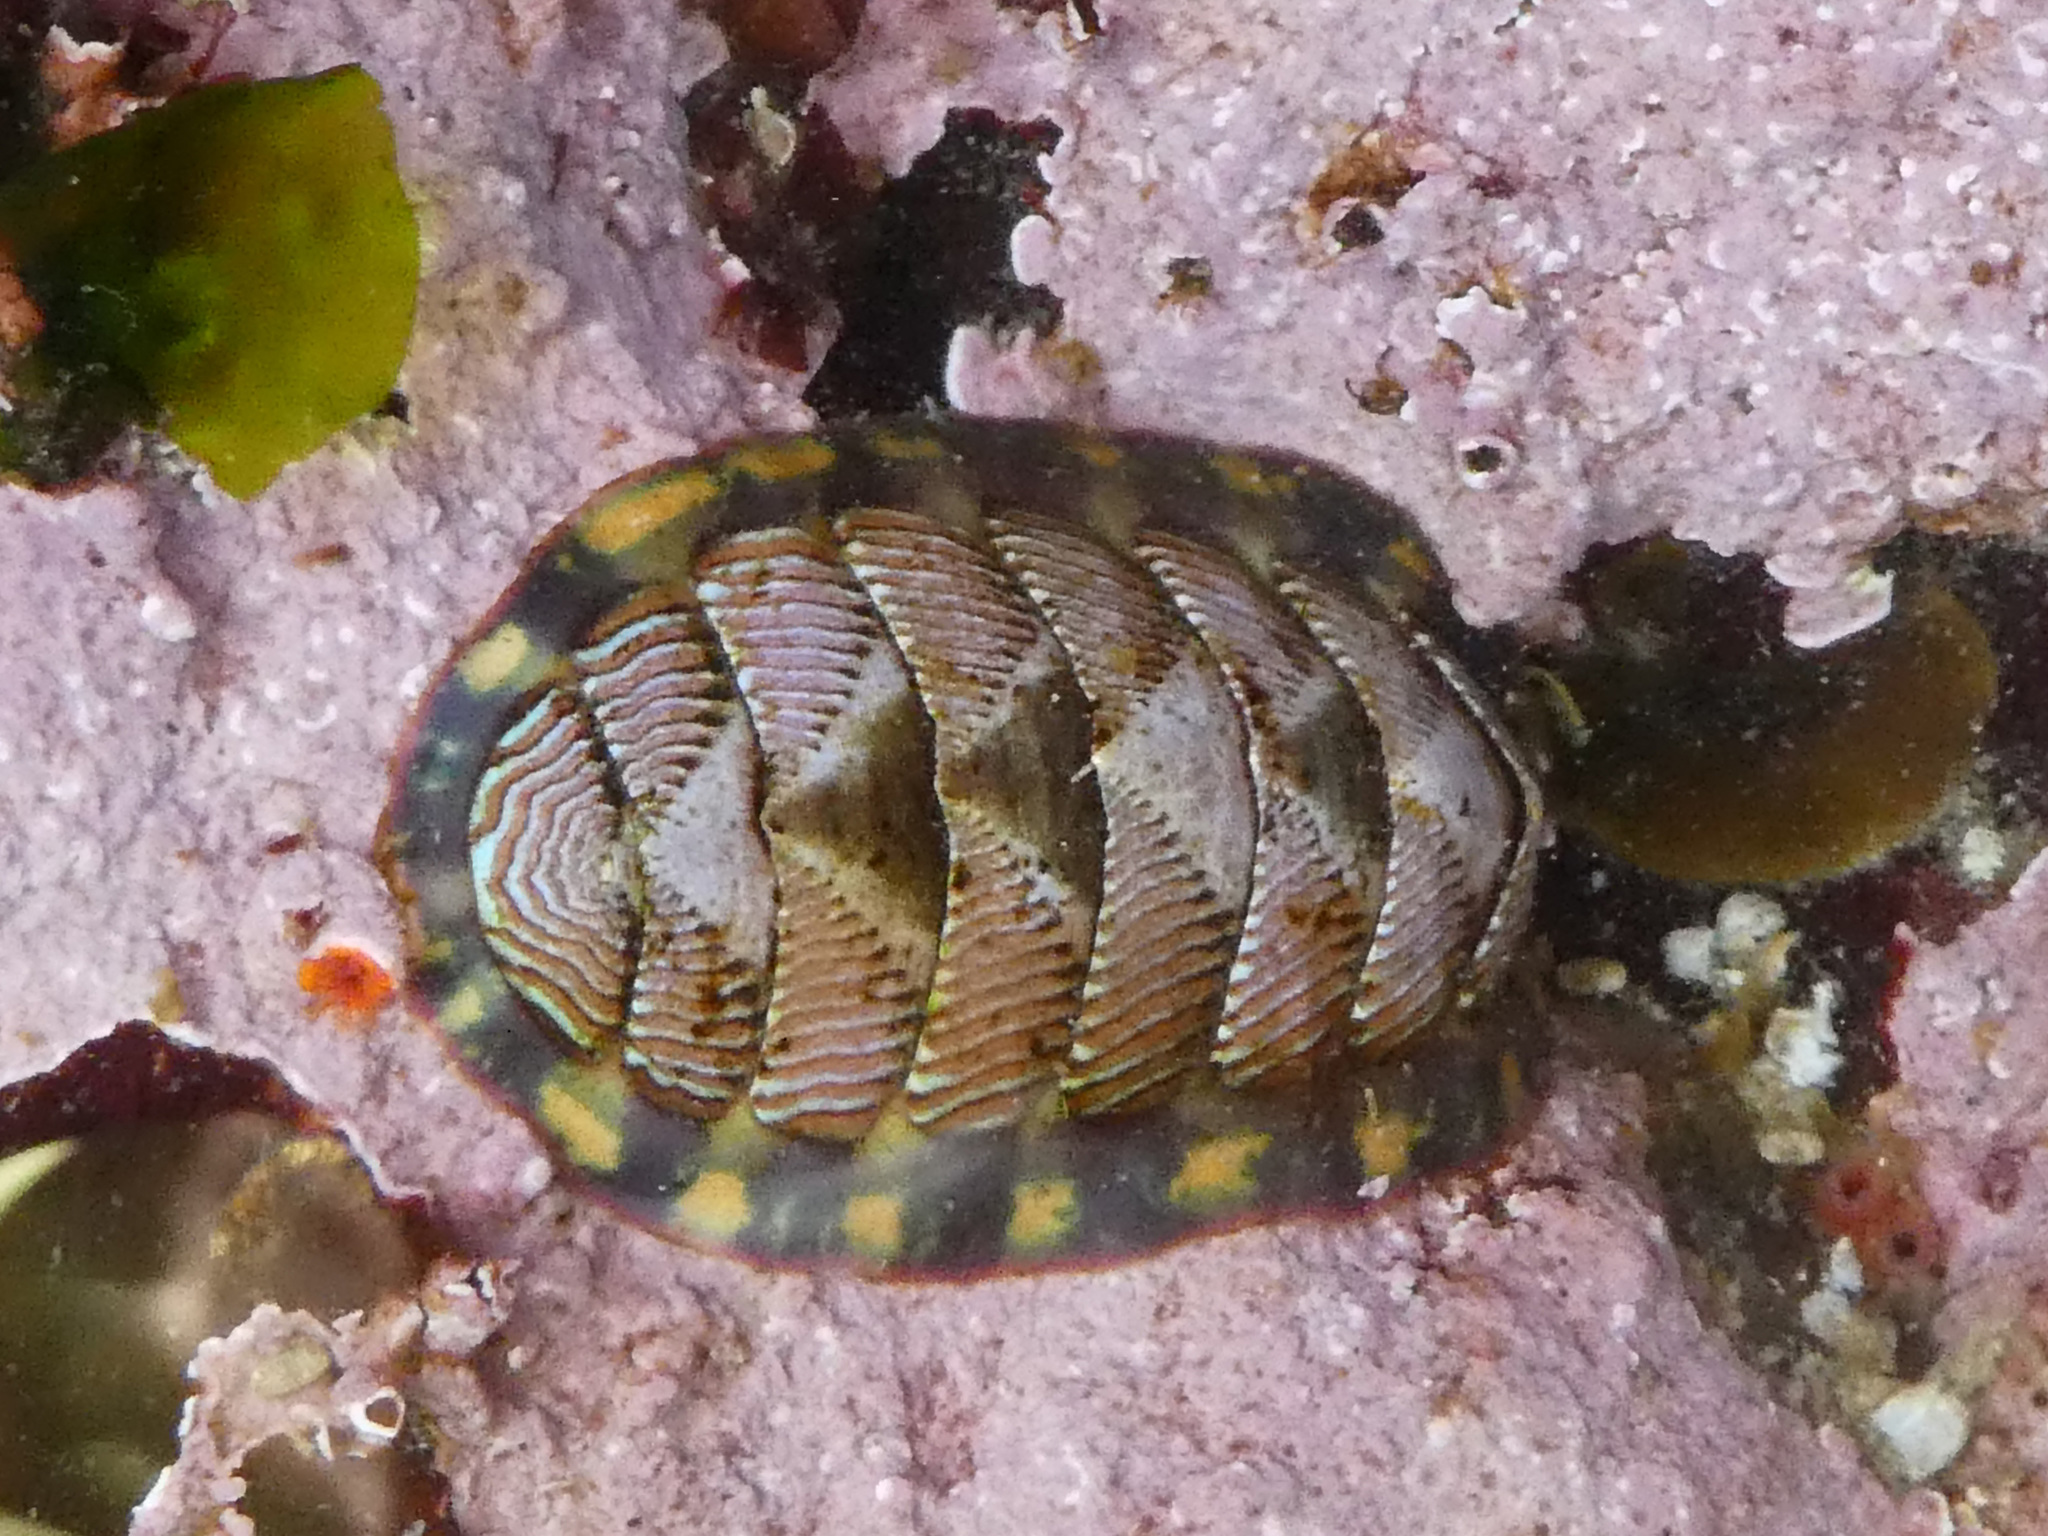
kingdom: Animalia
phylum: Mollusca
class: Polyplacophora
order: Chitonida
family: Tonicellidae
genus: Tonicella
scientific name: Tonicella lineata
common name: Lined chiton
